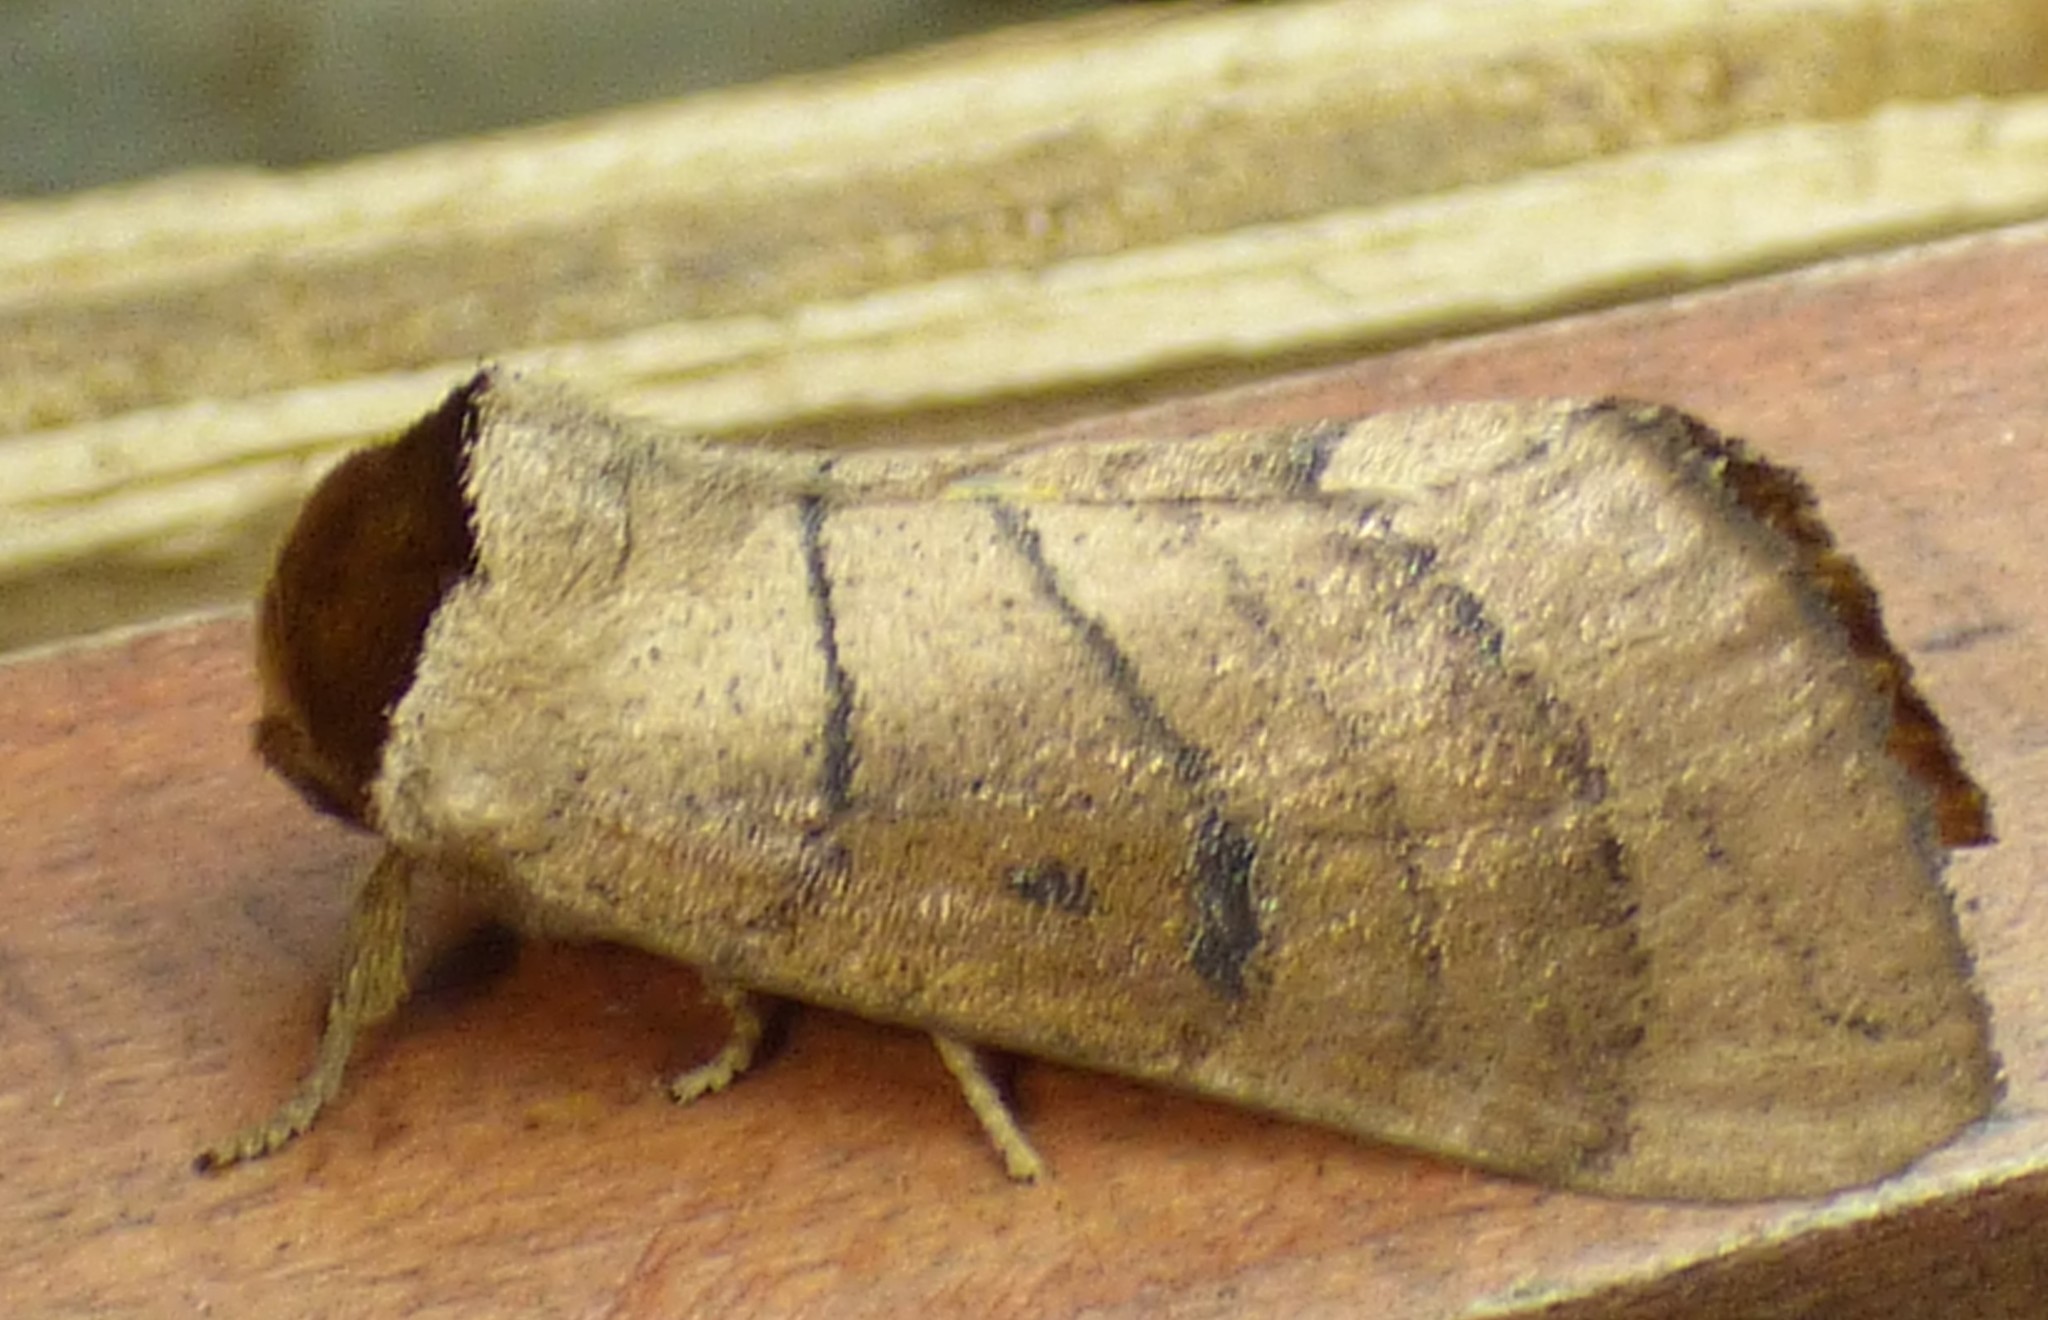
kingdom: Animalia
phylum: Arthropoda
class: Insecta
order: Lepidoptera
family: Notodontidae
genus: Datana
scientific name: Datana angusii
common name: Angus's datana
